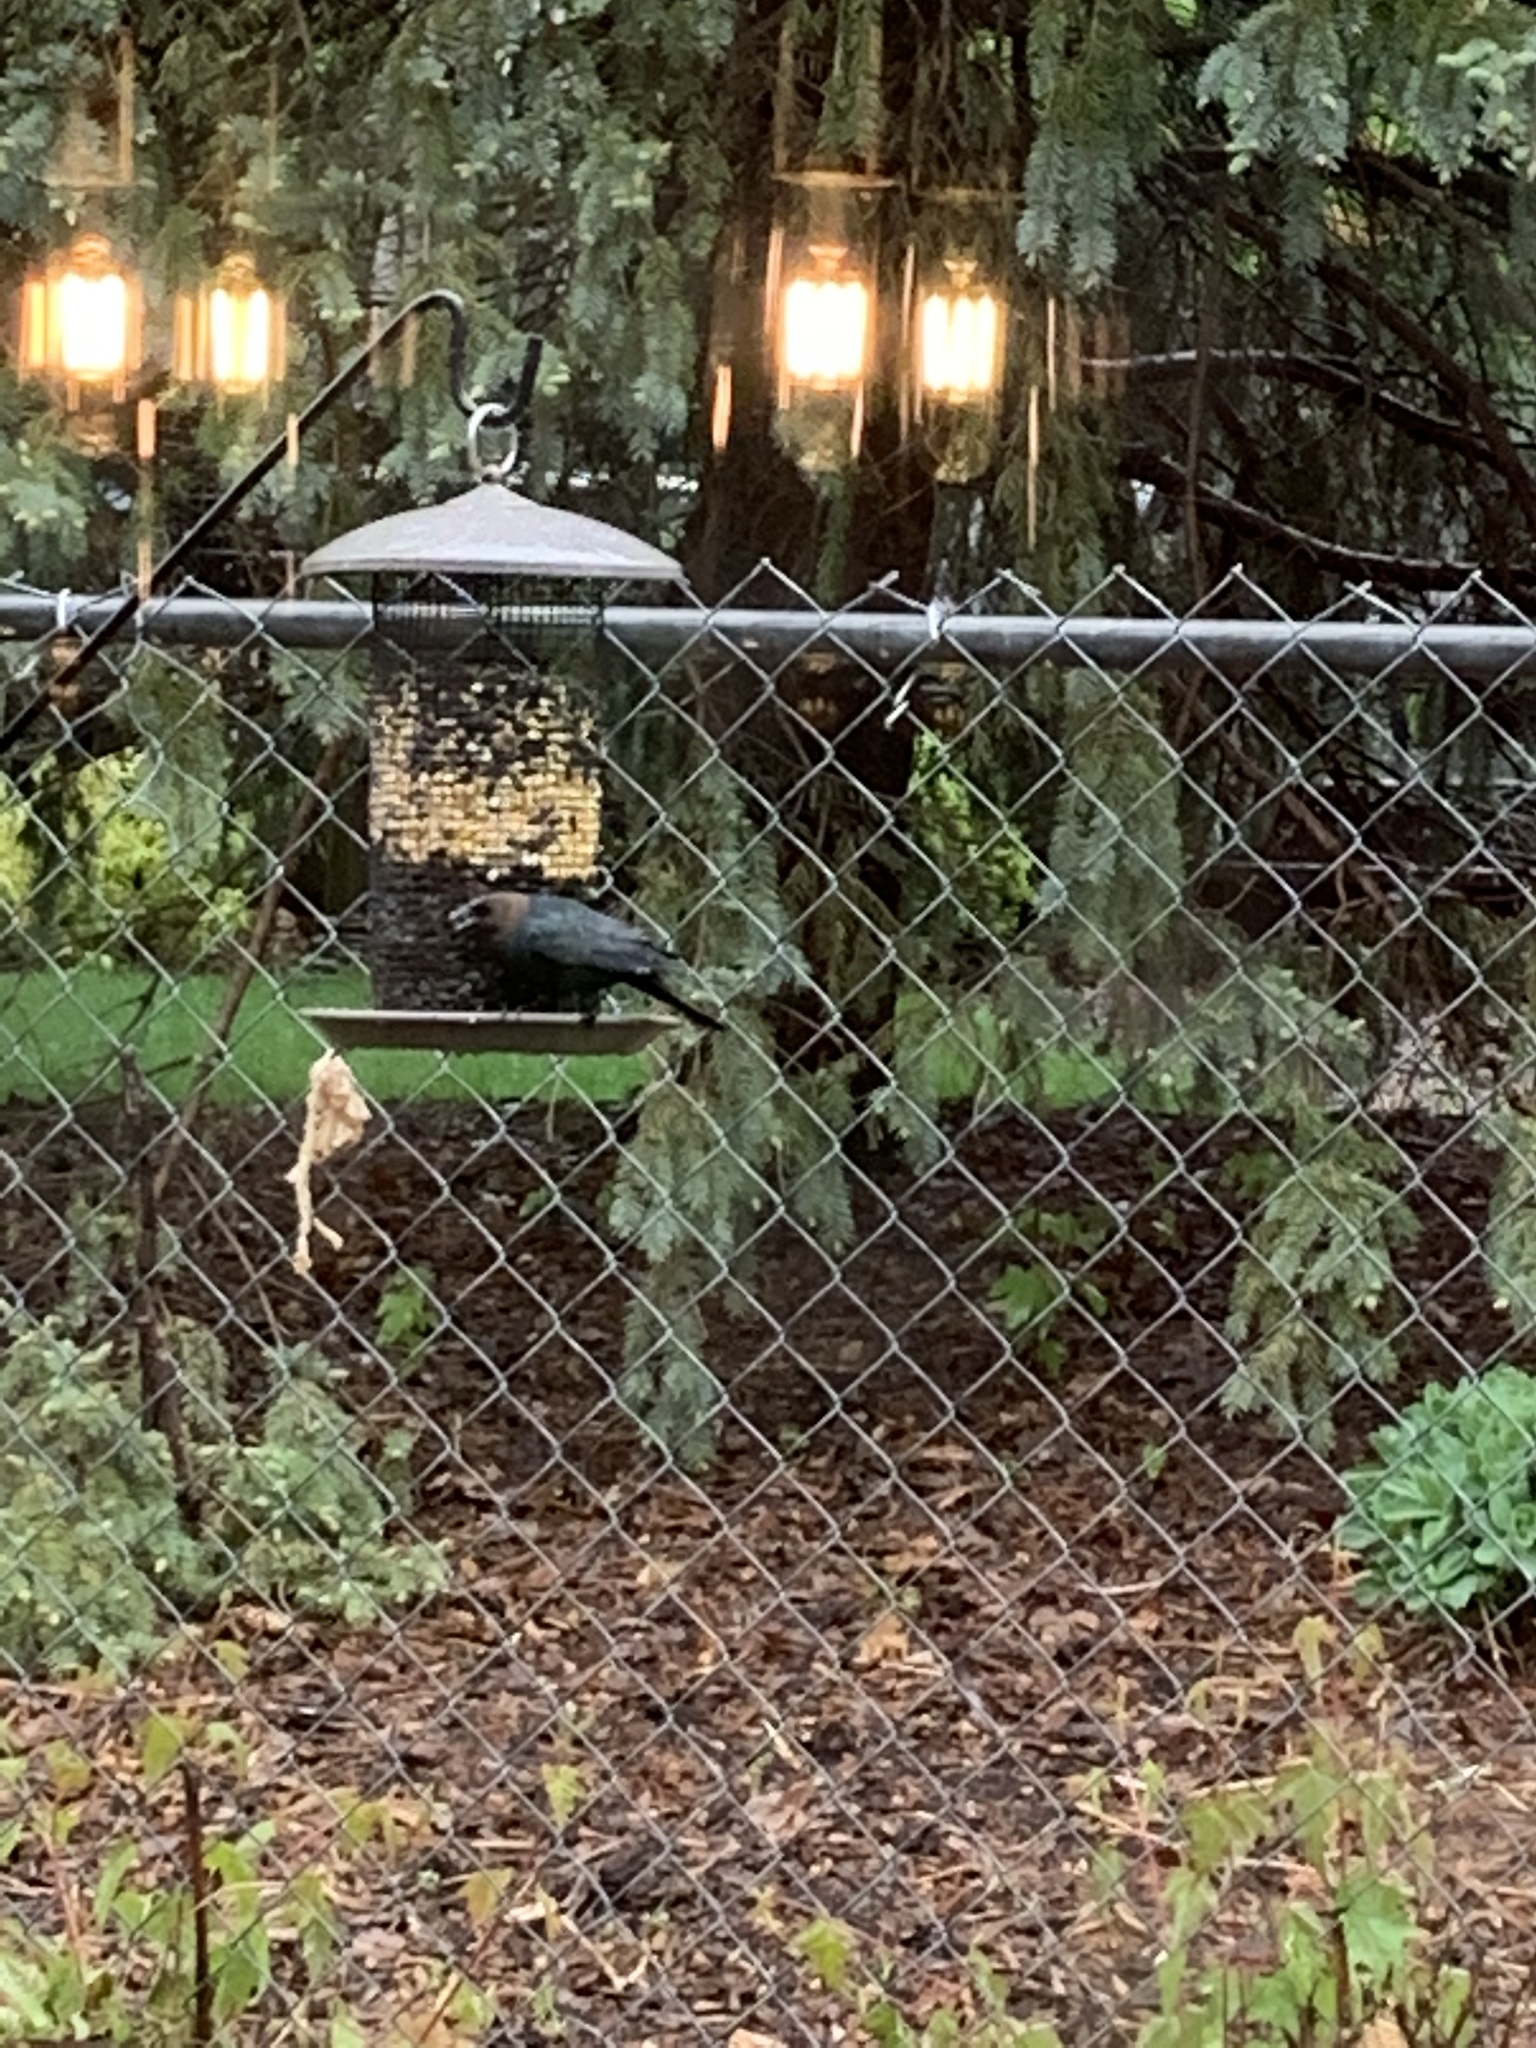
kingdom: Animalia
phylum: Chordata
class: Aves
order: Passeriformes
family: Icteridae
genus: Molothrus
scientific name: Molothrus ater
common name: Brown-headed cowbird
